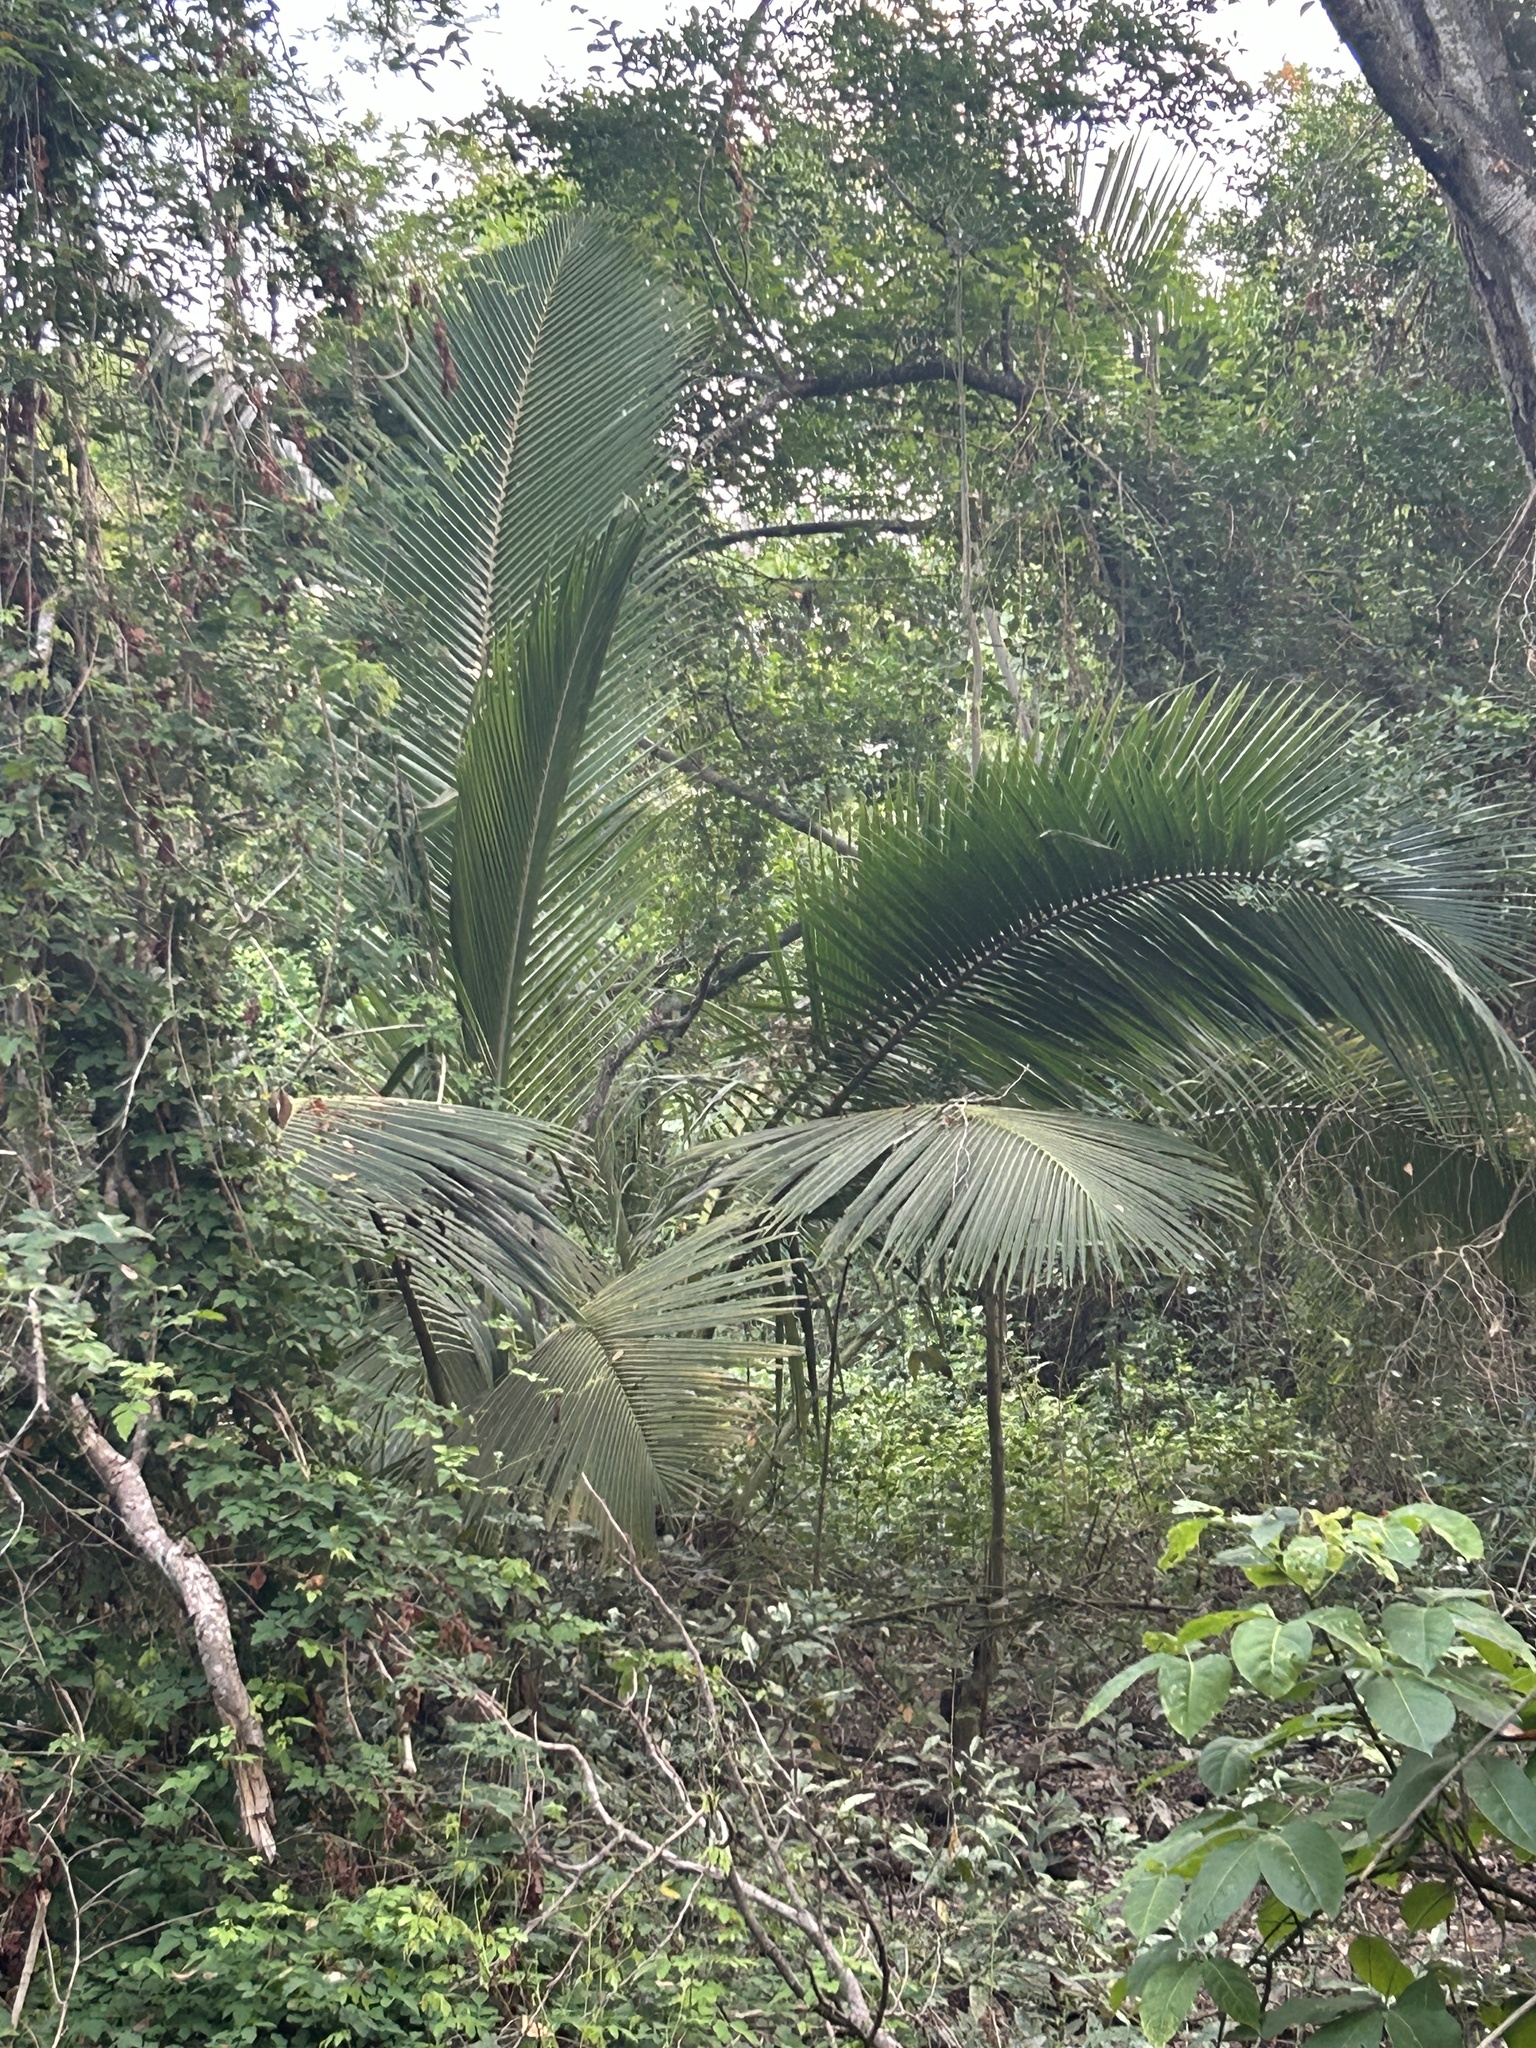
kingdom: Plantae
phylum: Tracheophyta
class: Liliopsida
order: Arecales
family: Arecaceae
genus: Cocos
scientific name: Cocos nucifera
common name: Coconut palm
